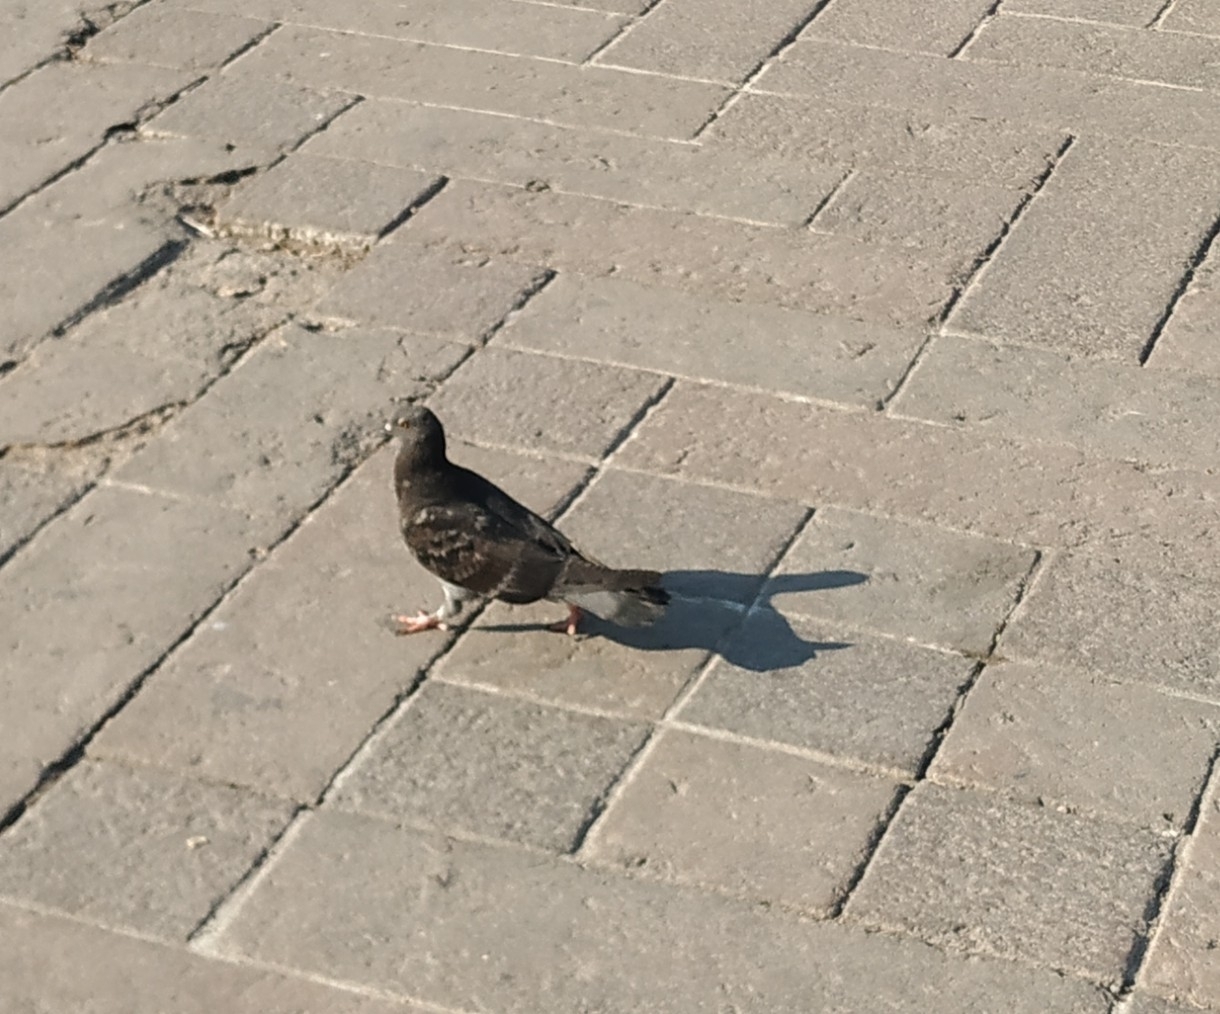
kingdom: Animalia
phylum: Chordata
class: Aves
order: Columbiformes
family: Columbidae
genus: Columba
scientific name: Columba livia
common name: Rock pigeon
